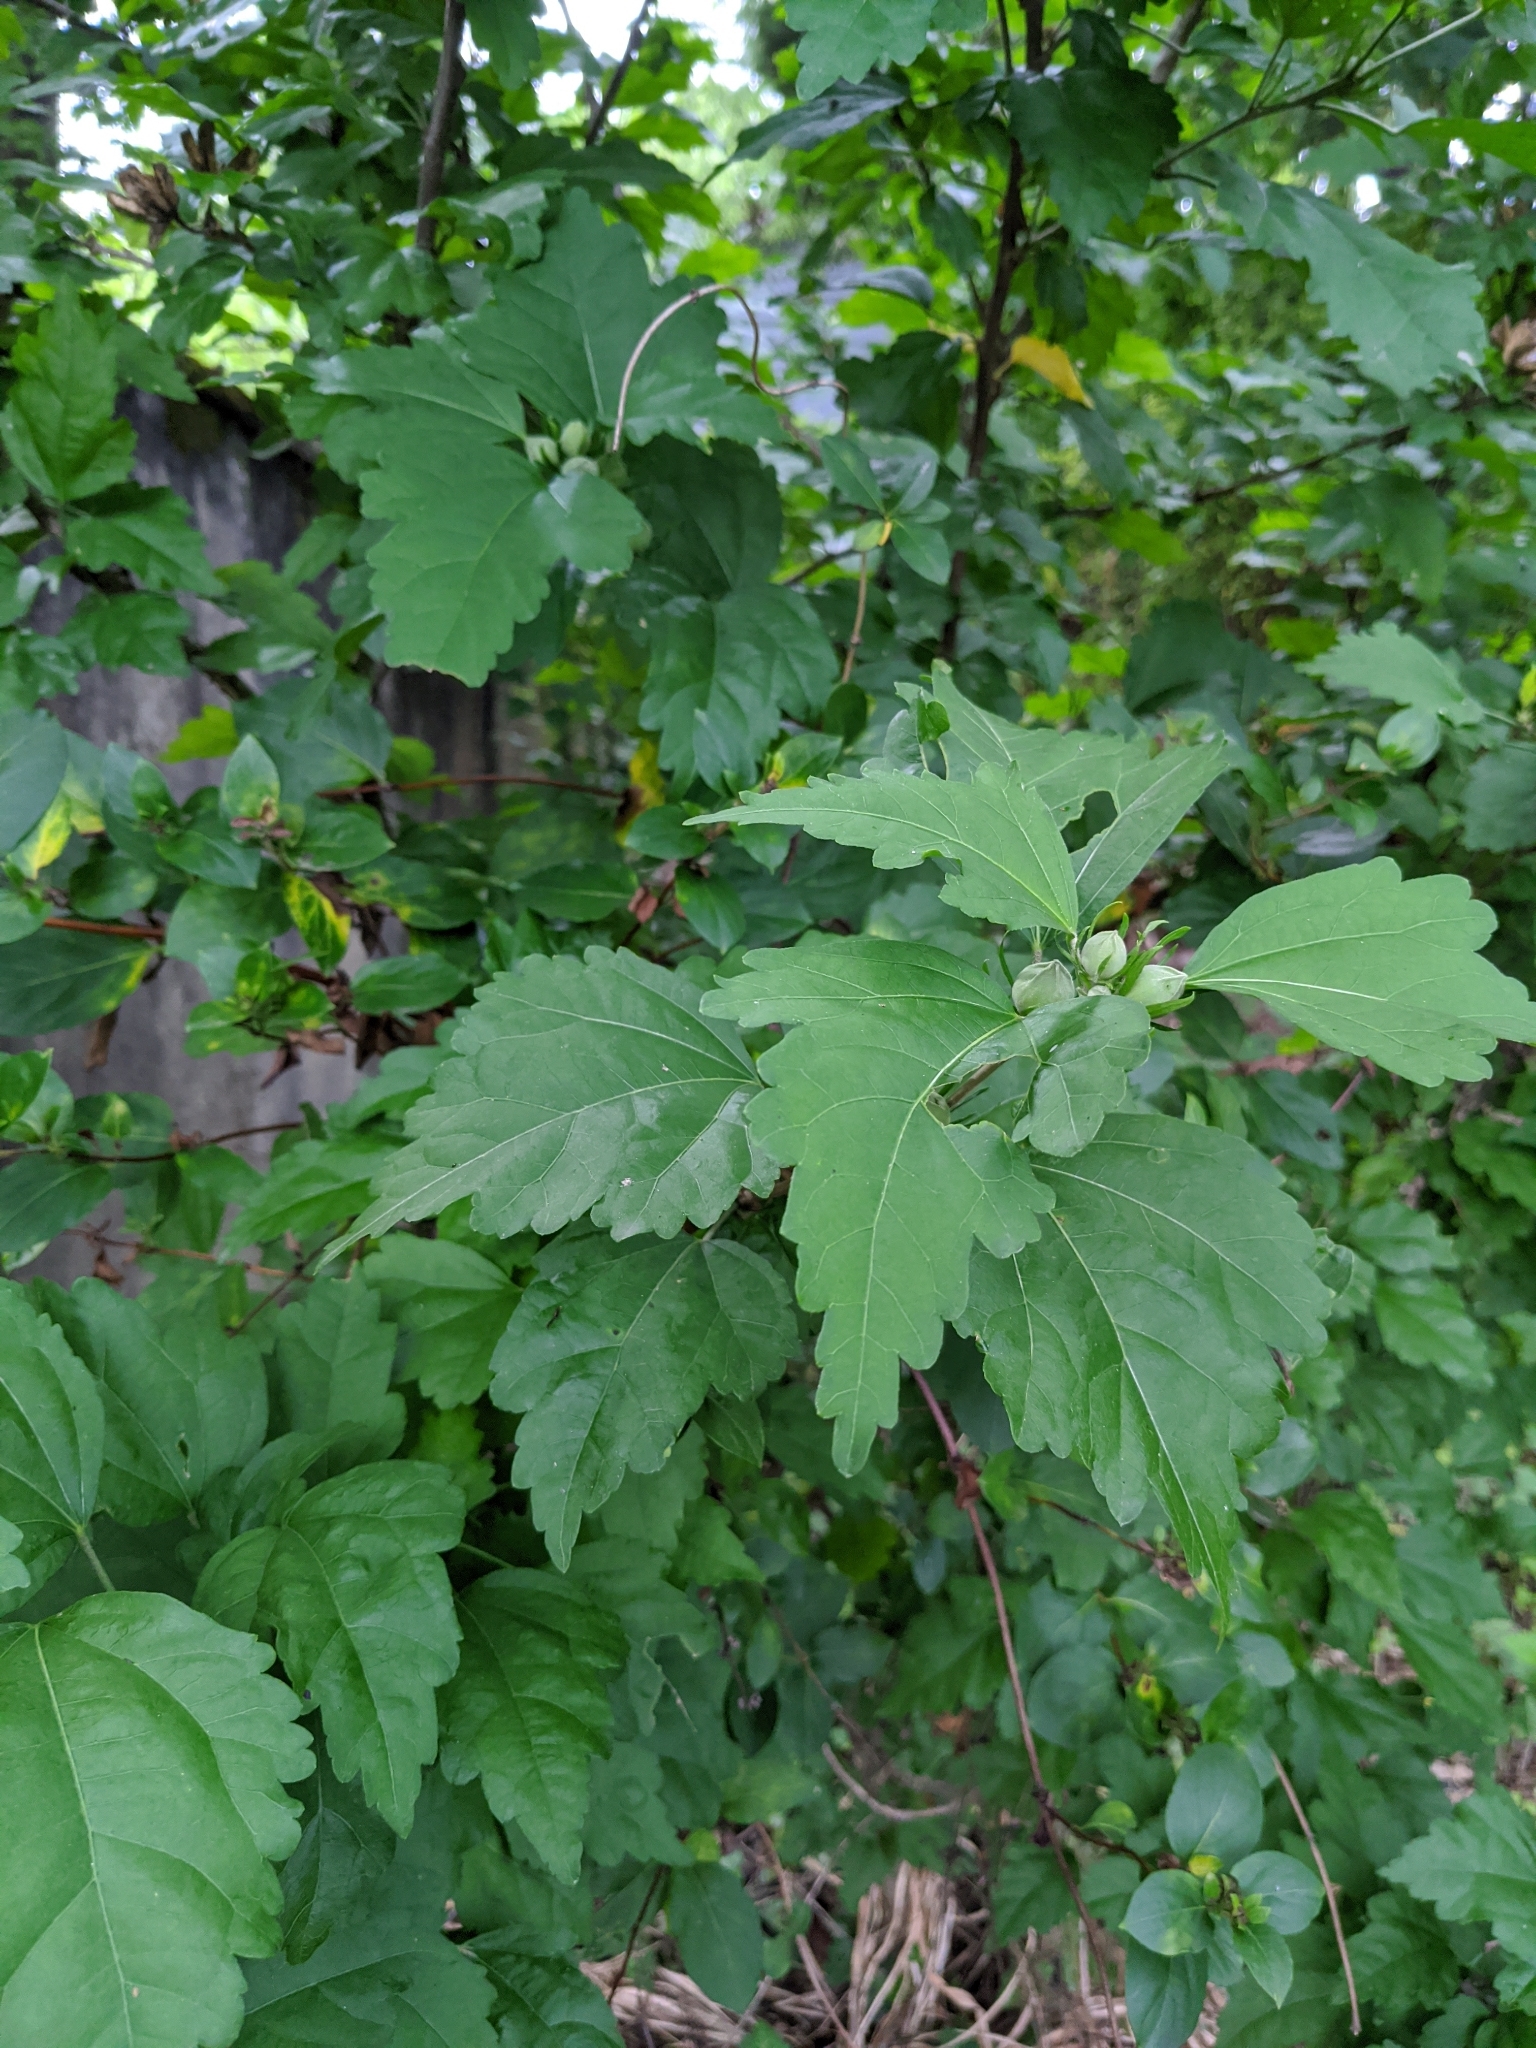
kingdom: Plantae
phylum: Tracheophyta
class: Magnoliopsida
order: Malvales
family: Malvaceae
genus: Hibiscus
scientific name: Hibiscus syriacus
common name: Syrian ketmia
